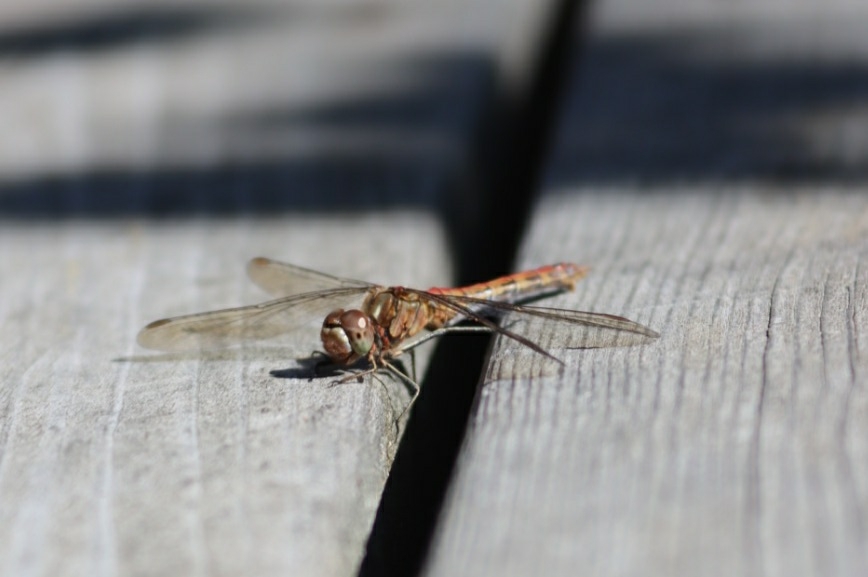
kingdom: Animalia
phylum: Arthropoda
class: Insecta
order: Odonata
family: Libellulidae
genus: Sympetrum
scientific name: Sympetrum vulgatum
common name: Vagrant darter
